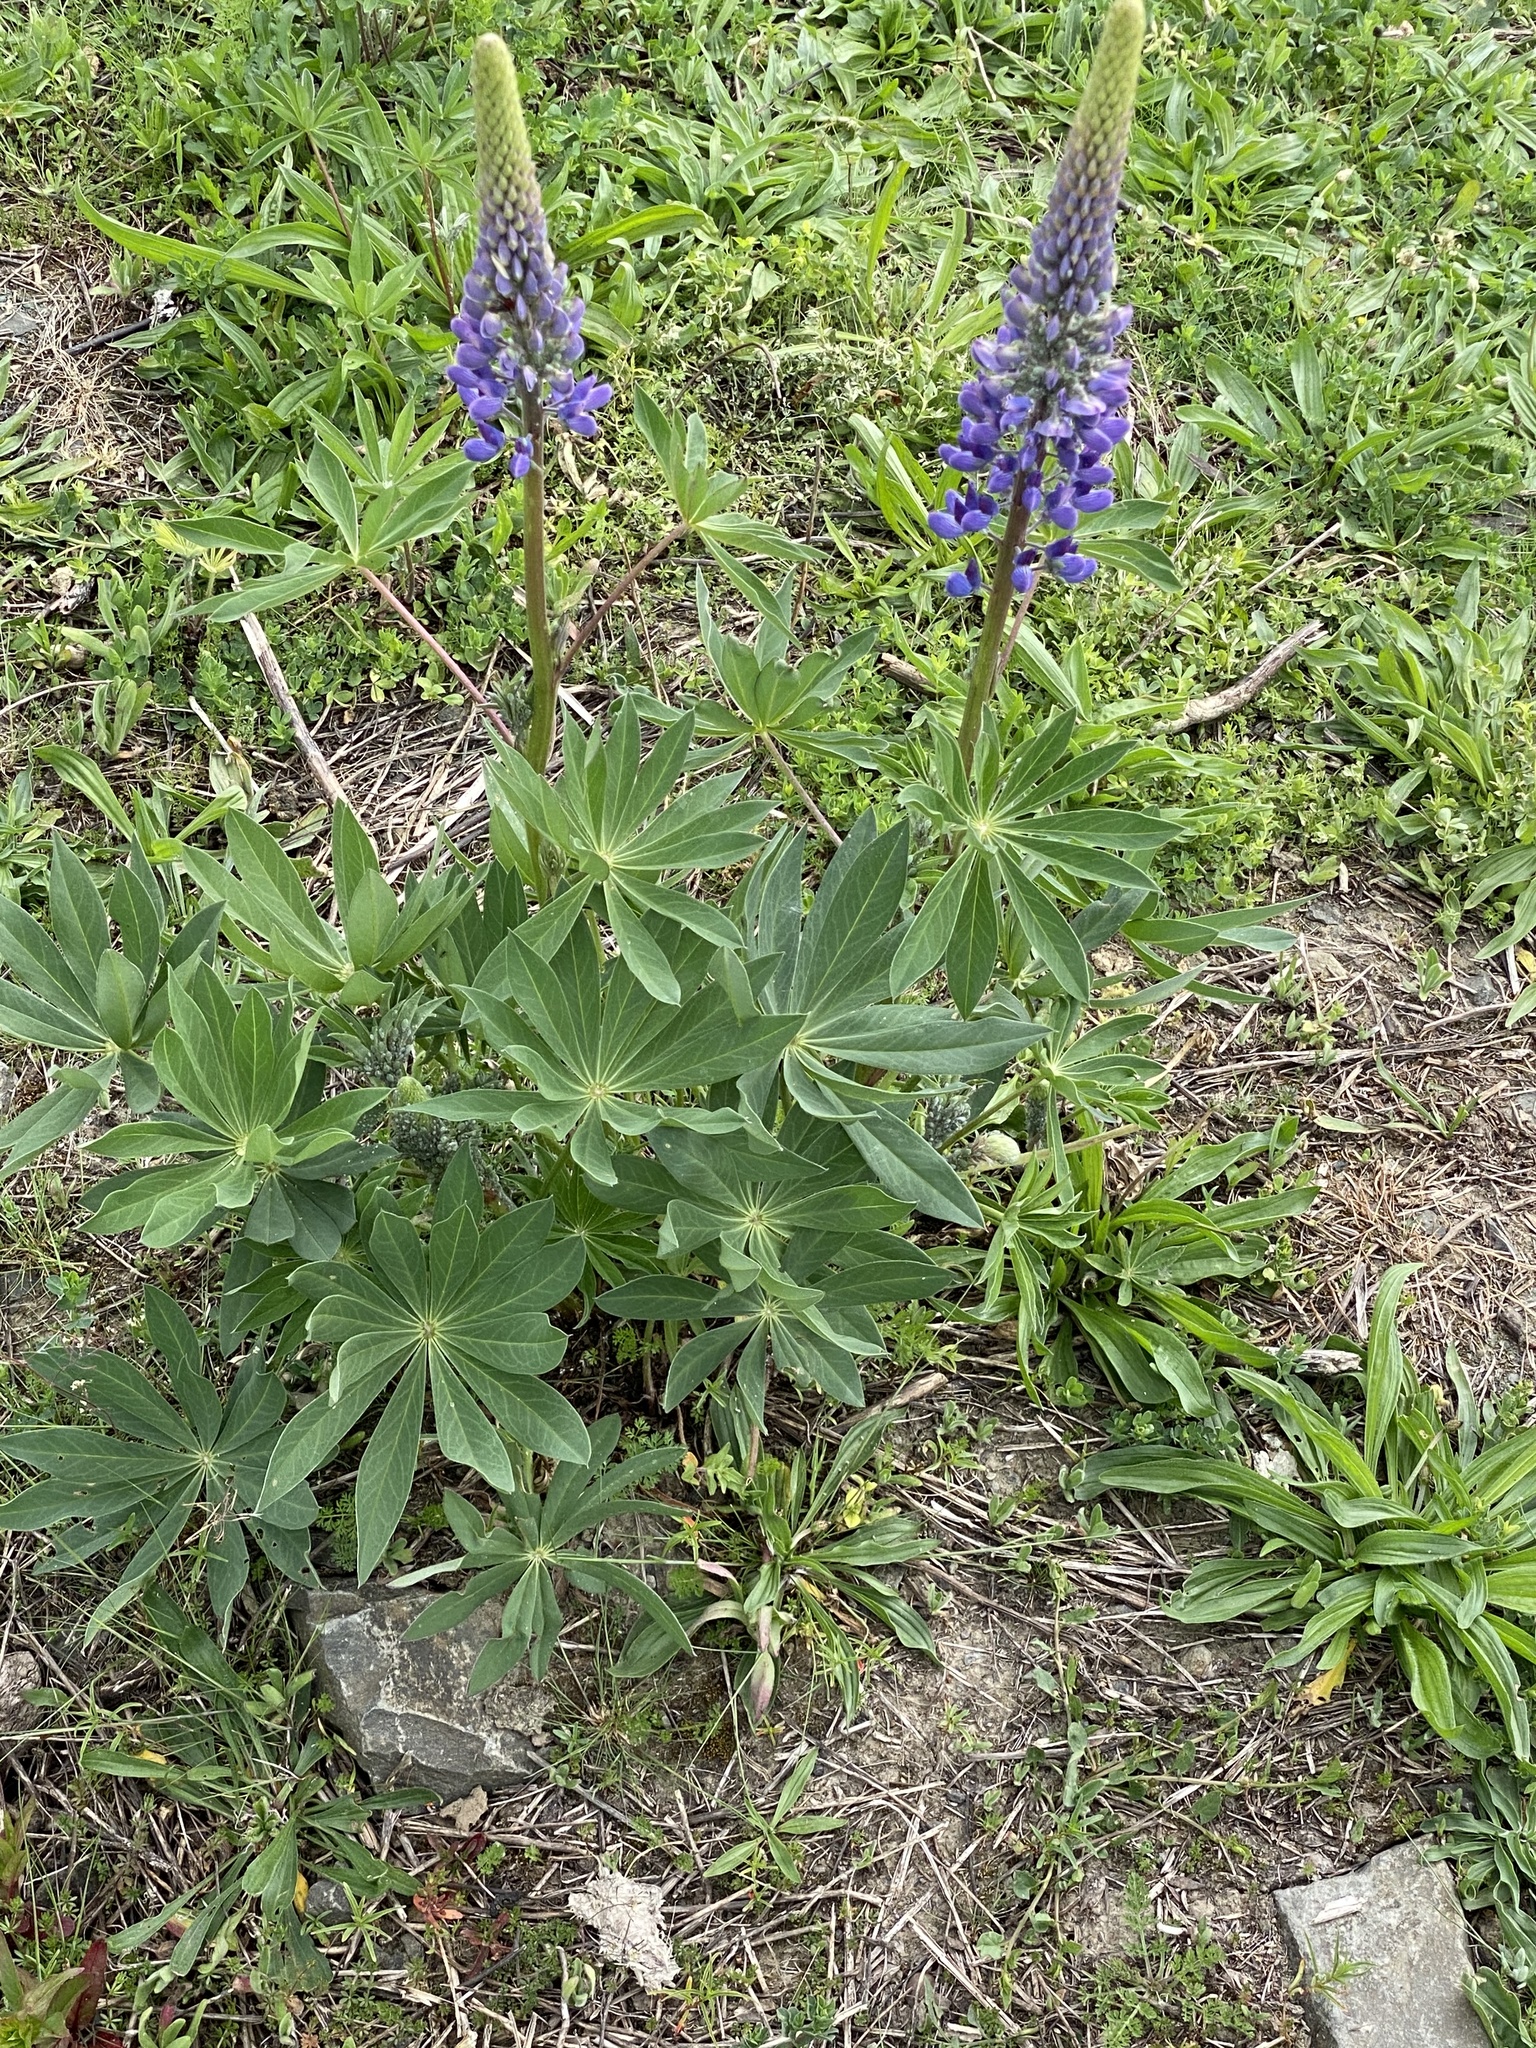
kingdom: Plantae
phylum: Tracheophyta
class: Magnoliopsida
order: Fabales
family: Fabaceae
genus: Lupinus
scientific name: Lupinus polyphyllus
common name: Garden lupin
